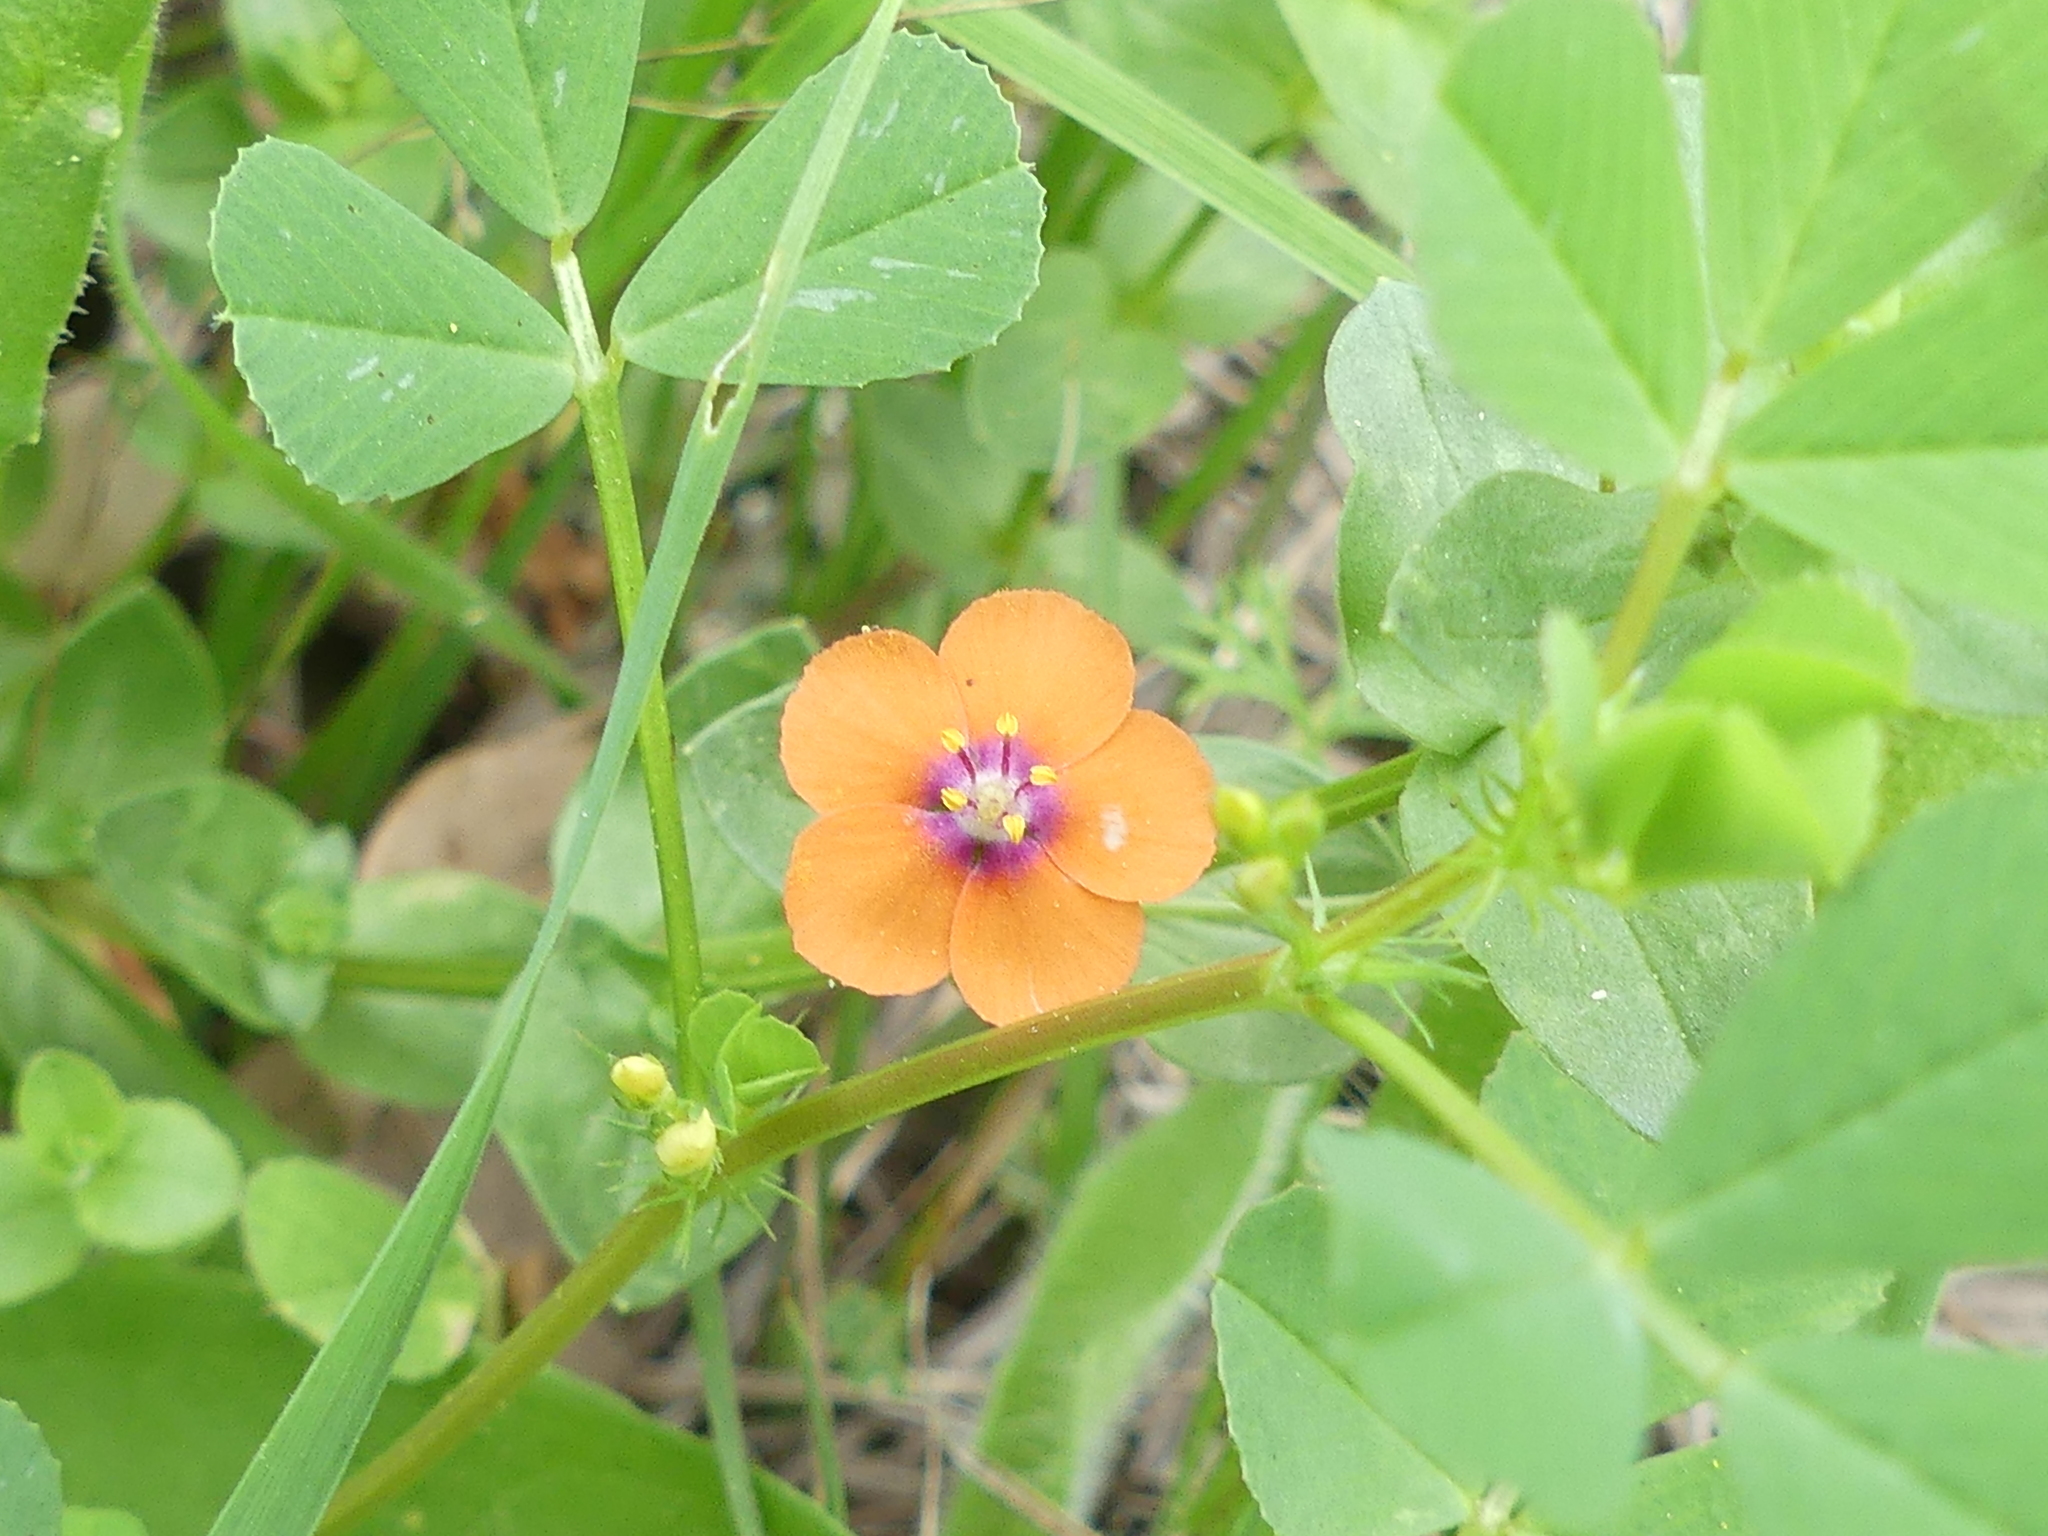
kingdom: Plantae
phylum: Tracheophyta
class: Magnoliopsida
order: Ericales
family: Primulaceae
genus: Lysimachia
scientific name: Lysimachia arvensis
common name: Scarlet pimpernel
